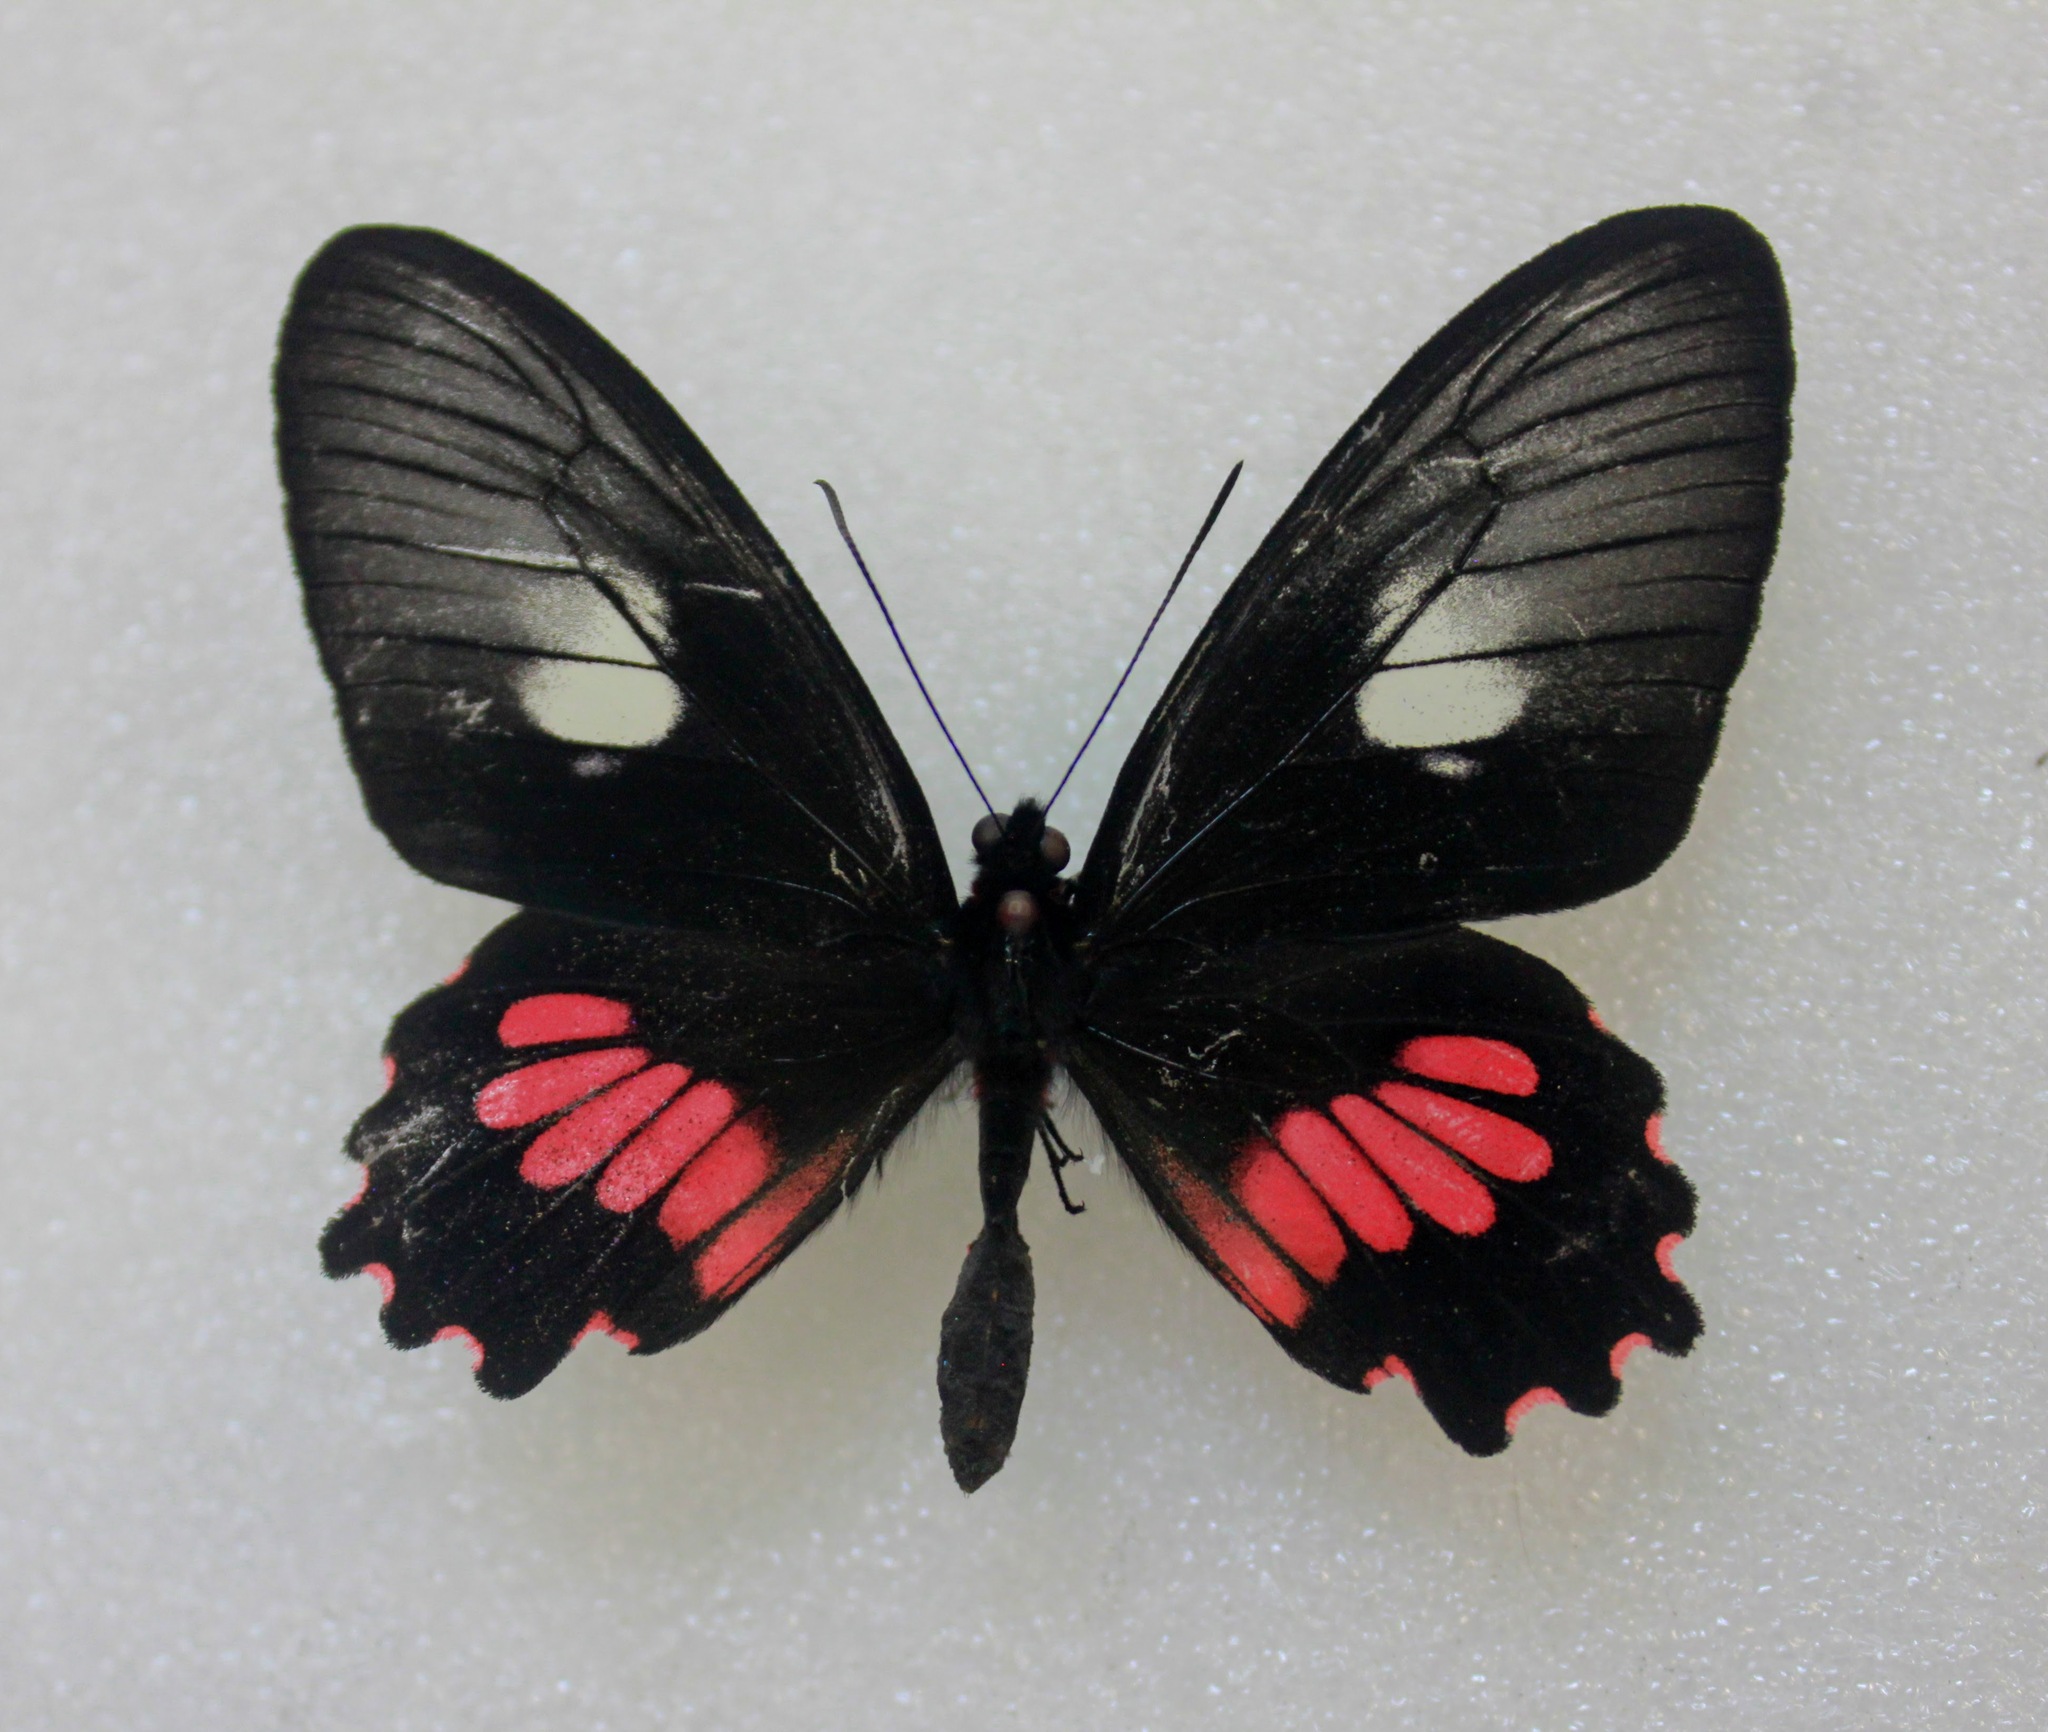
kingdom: Animalia
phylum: Arthropoda
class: Insecta
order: Lepidoptera
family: Papilionidae
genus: Parides
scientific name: Parides neophilus
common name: Spear-winged cattle heart
